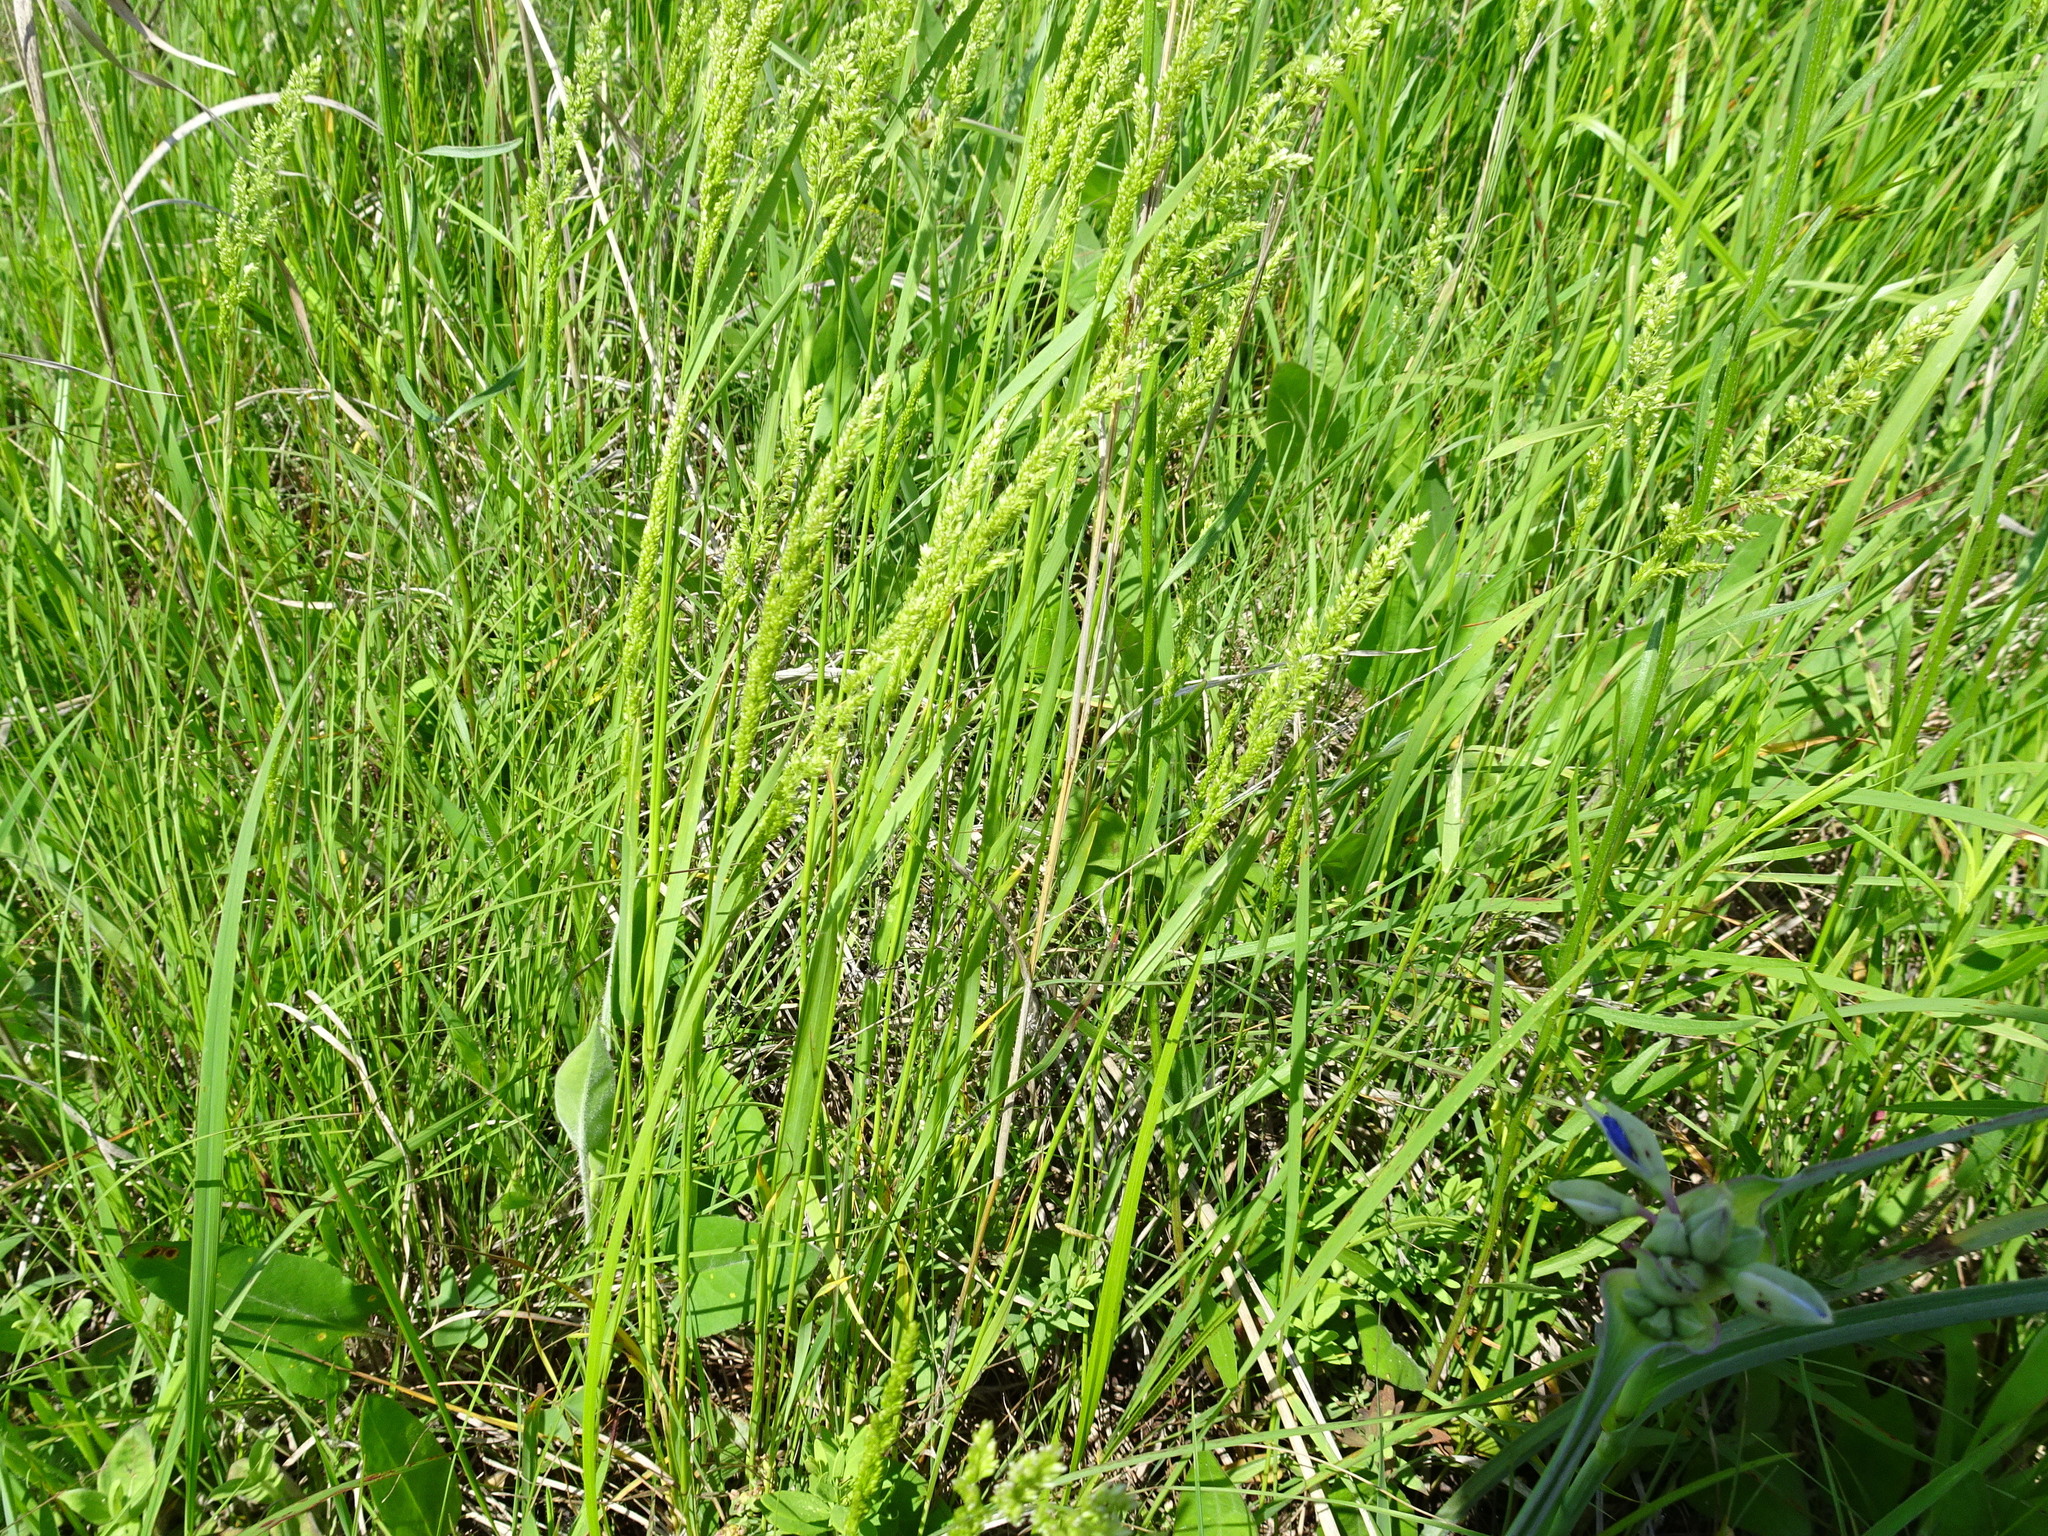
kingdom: Plantae
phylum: Tracheophyta
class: Liliopsida
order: Poales
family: Poaceae
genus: Sphenopholis
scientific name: Sphenopholis obtusata
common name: Prairie grass
